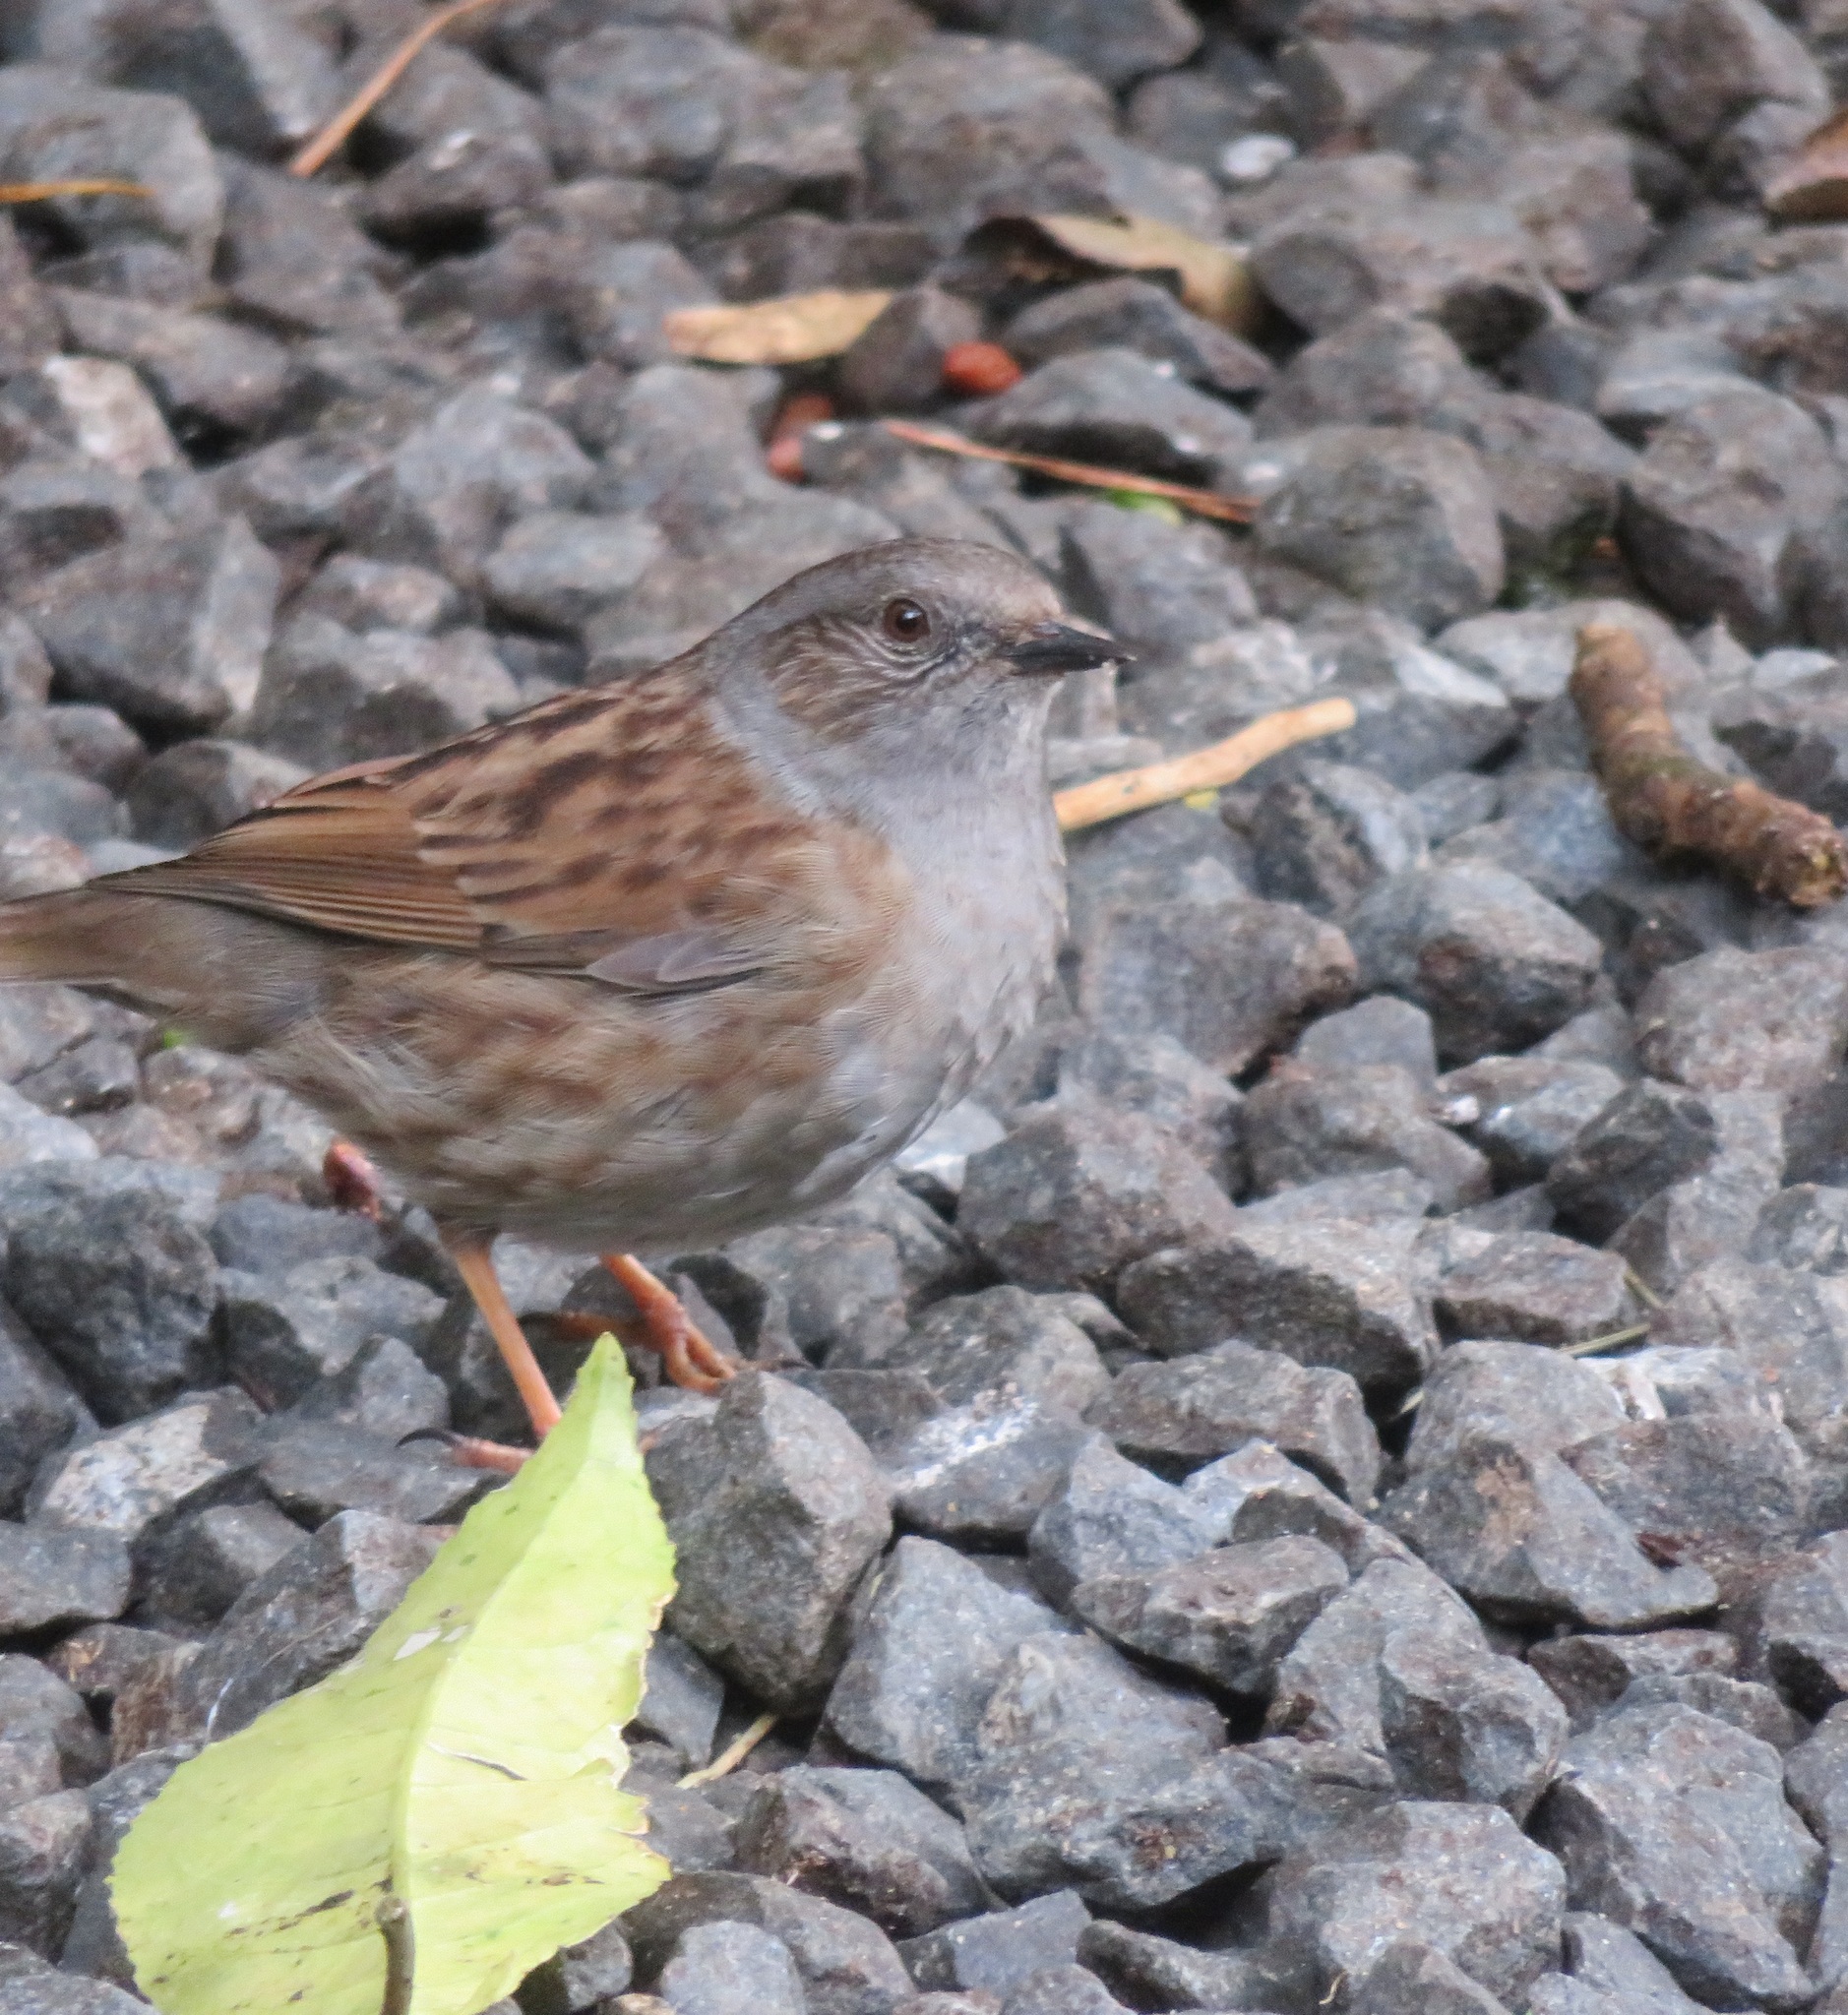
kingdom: Animalia
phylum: Chordata
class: Aves
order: Passeriformes
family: Prunellidae
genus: Prunella
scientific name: Prunella modularis
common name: Dunnock
